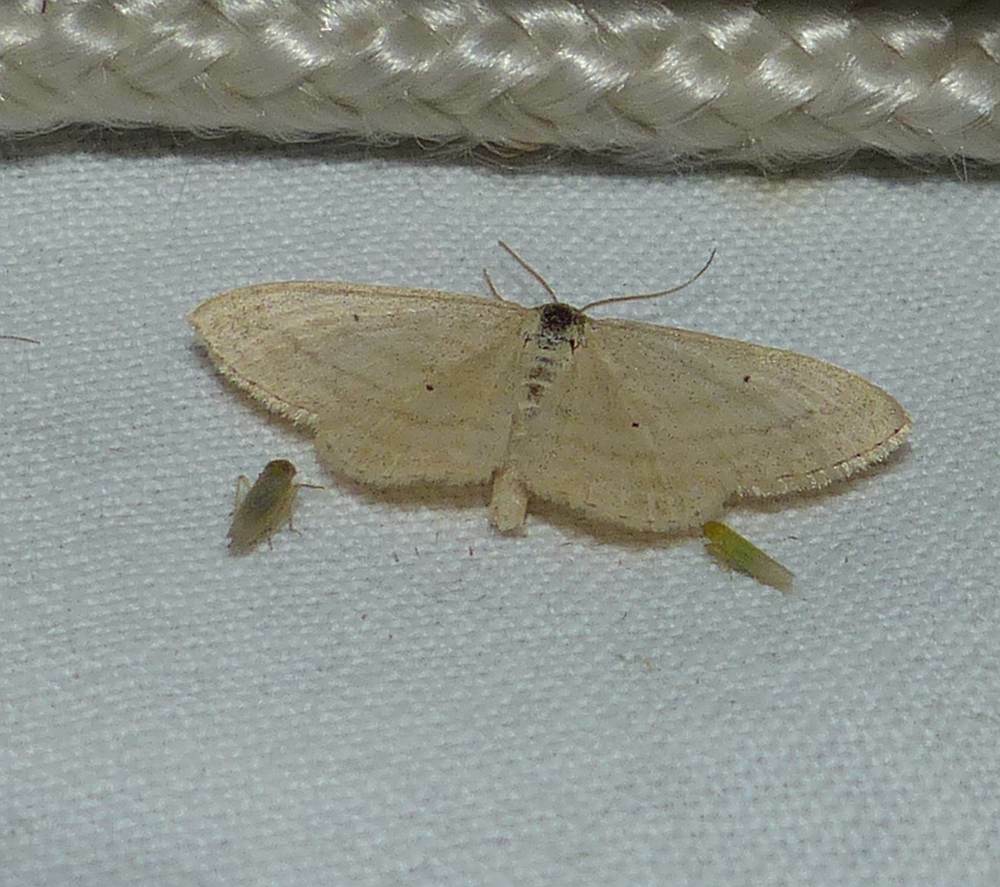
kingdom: Animalia
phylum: Arthropoda
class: Insecta
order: Lepidoptera
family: Geometridae
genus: Scopula
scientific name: Scopula inductata
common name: Soft-lined wave
